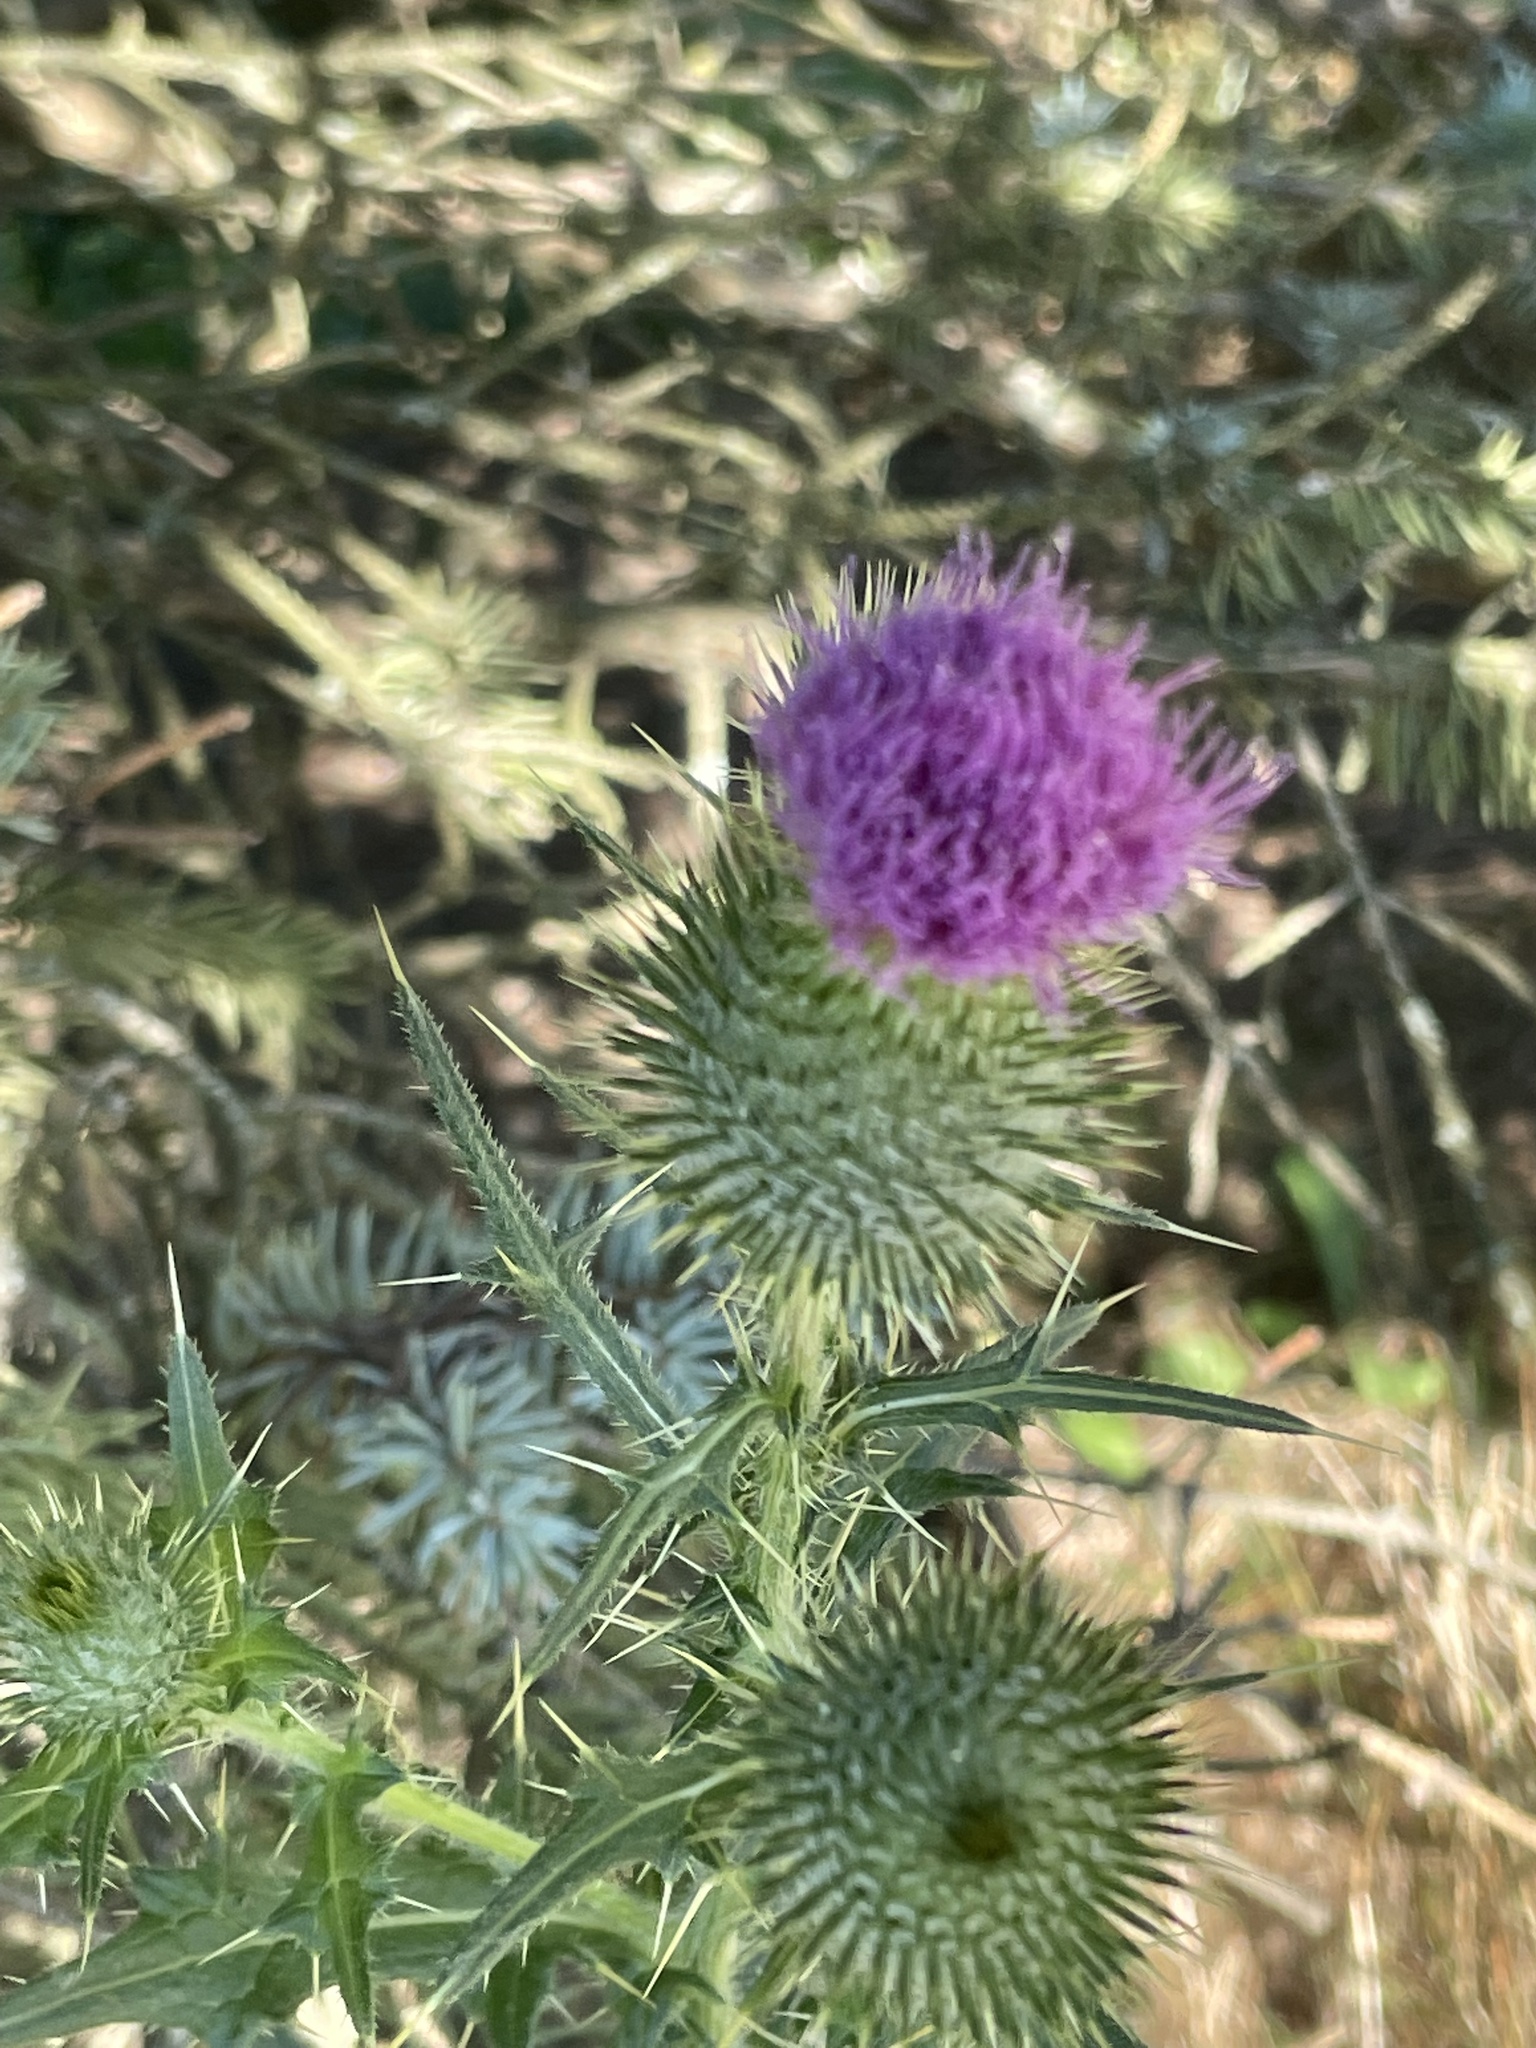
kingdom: Plantae
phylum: Tracheophyta
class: Magnoliopsida
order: Asterales
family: Asteraceae
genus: Cirsium
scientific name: Cirsium vulgare
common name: Bull thistle
